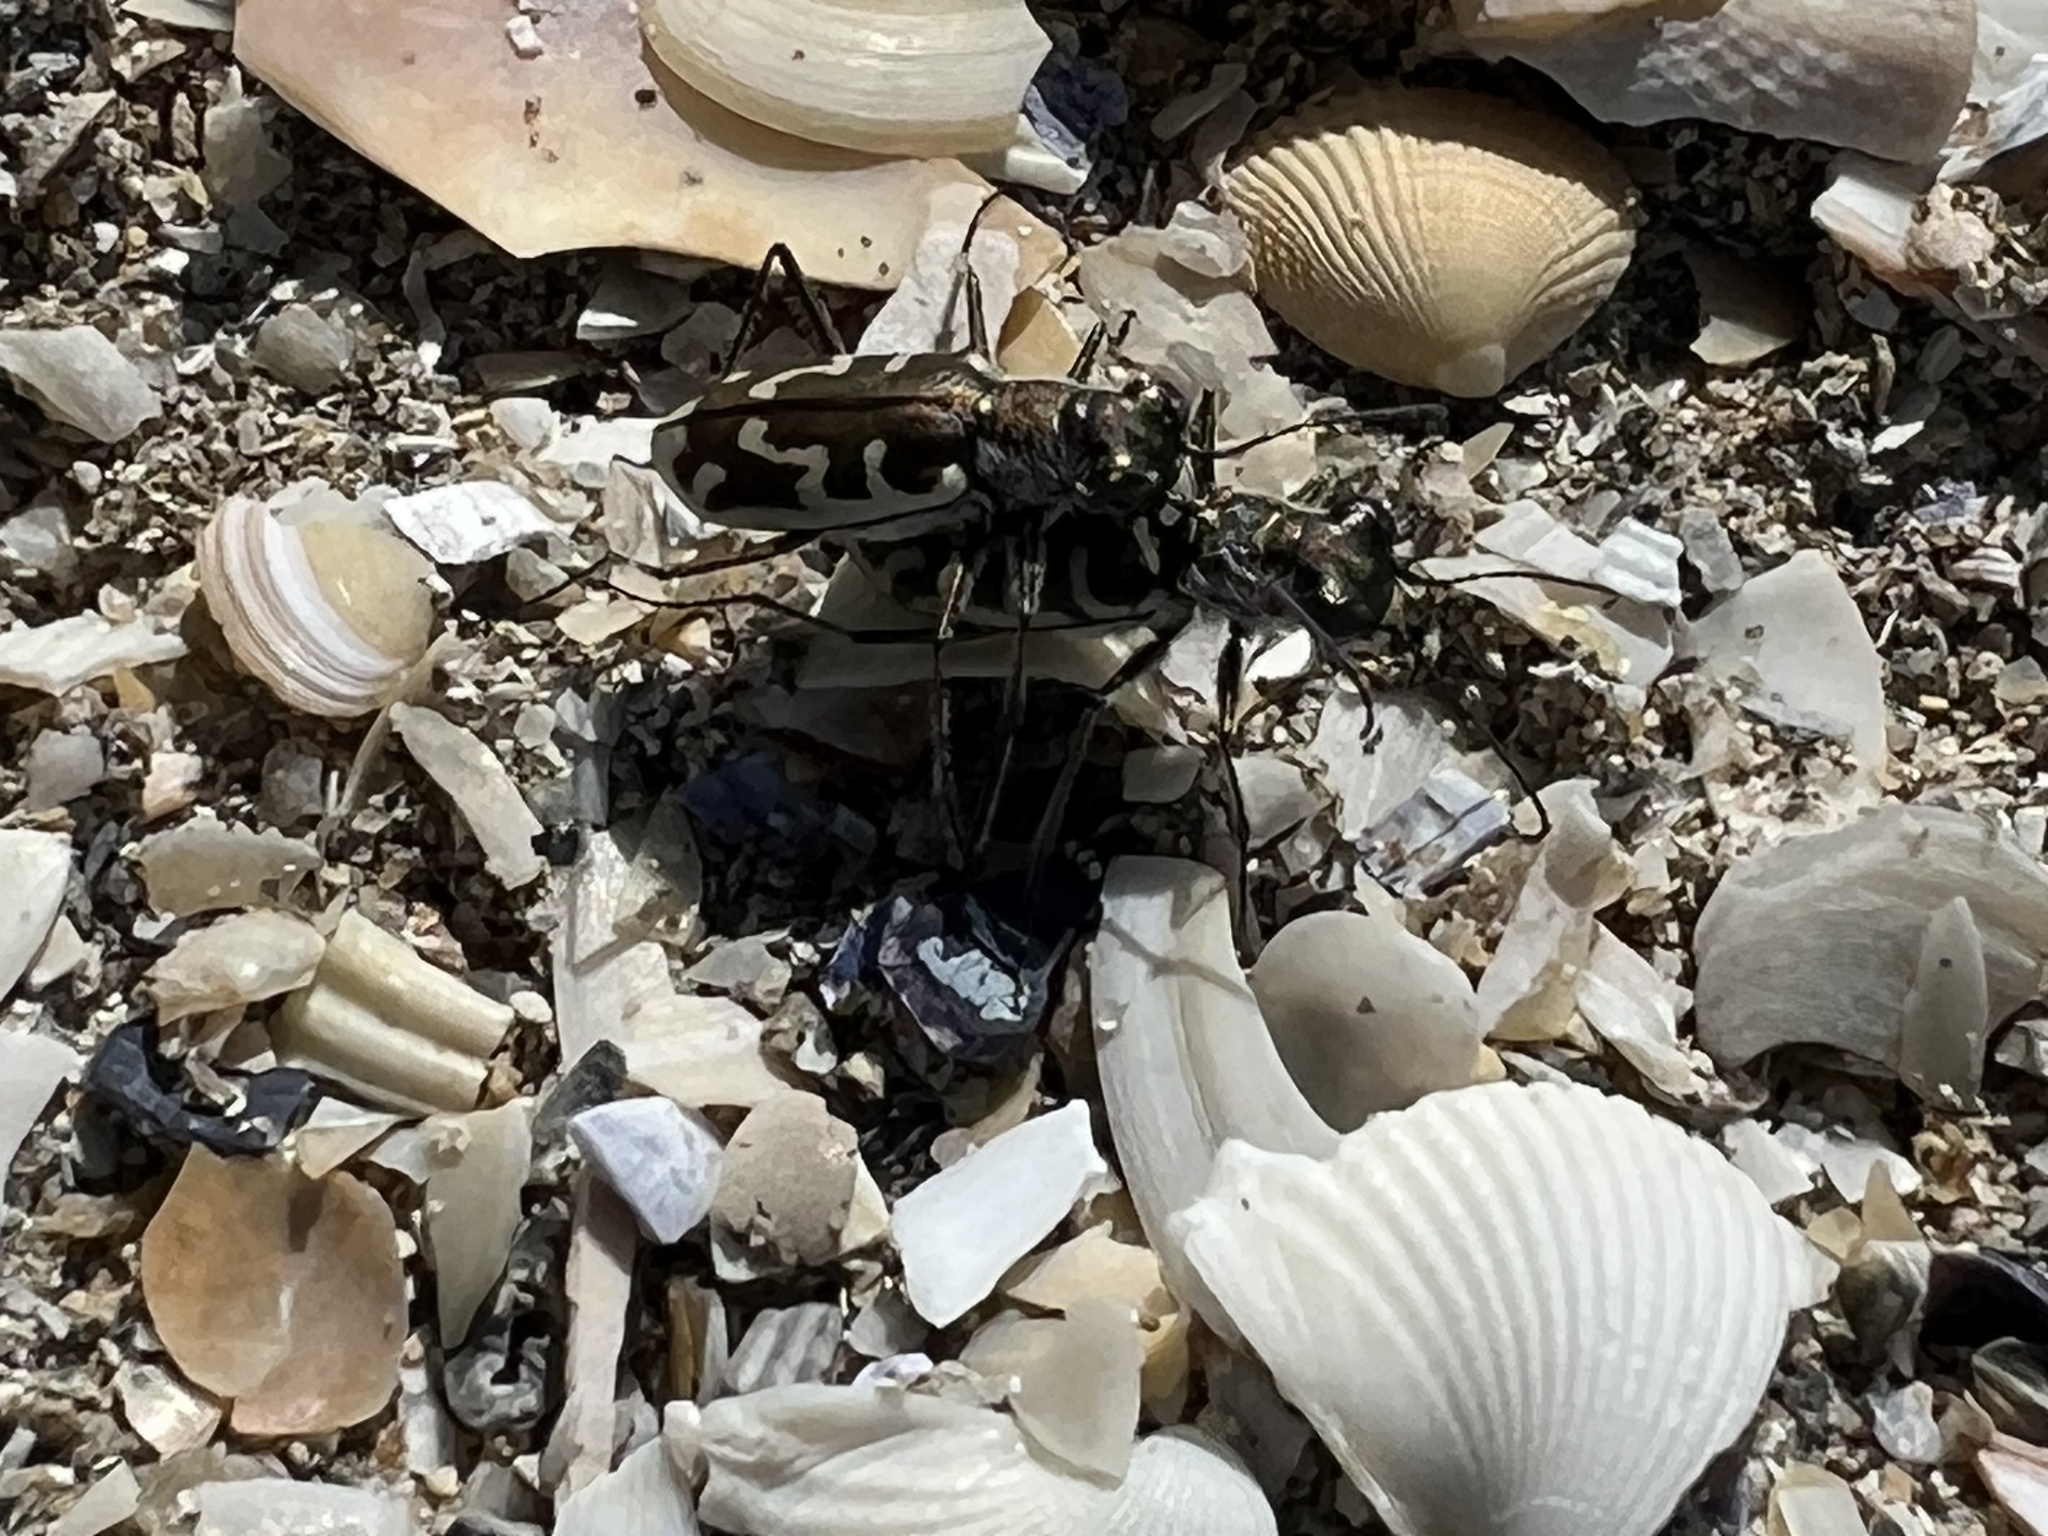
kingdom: Animalia
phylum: Arthropoda
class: Insecta
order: Coleoptera
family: Carabidae
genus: Cylindera
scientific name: Cylindera trisignata
